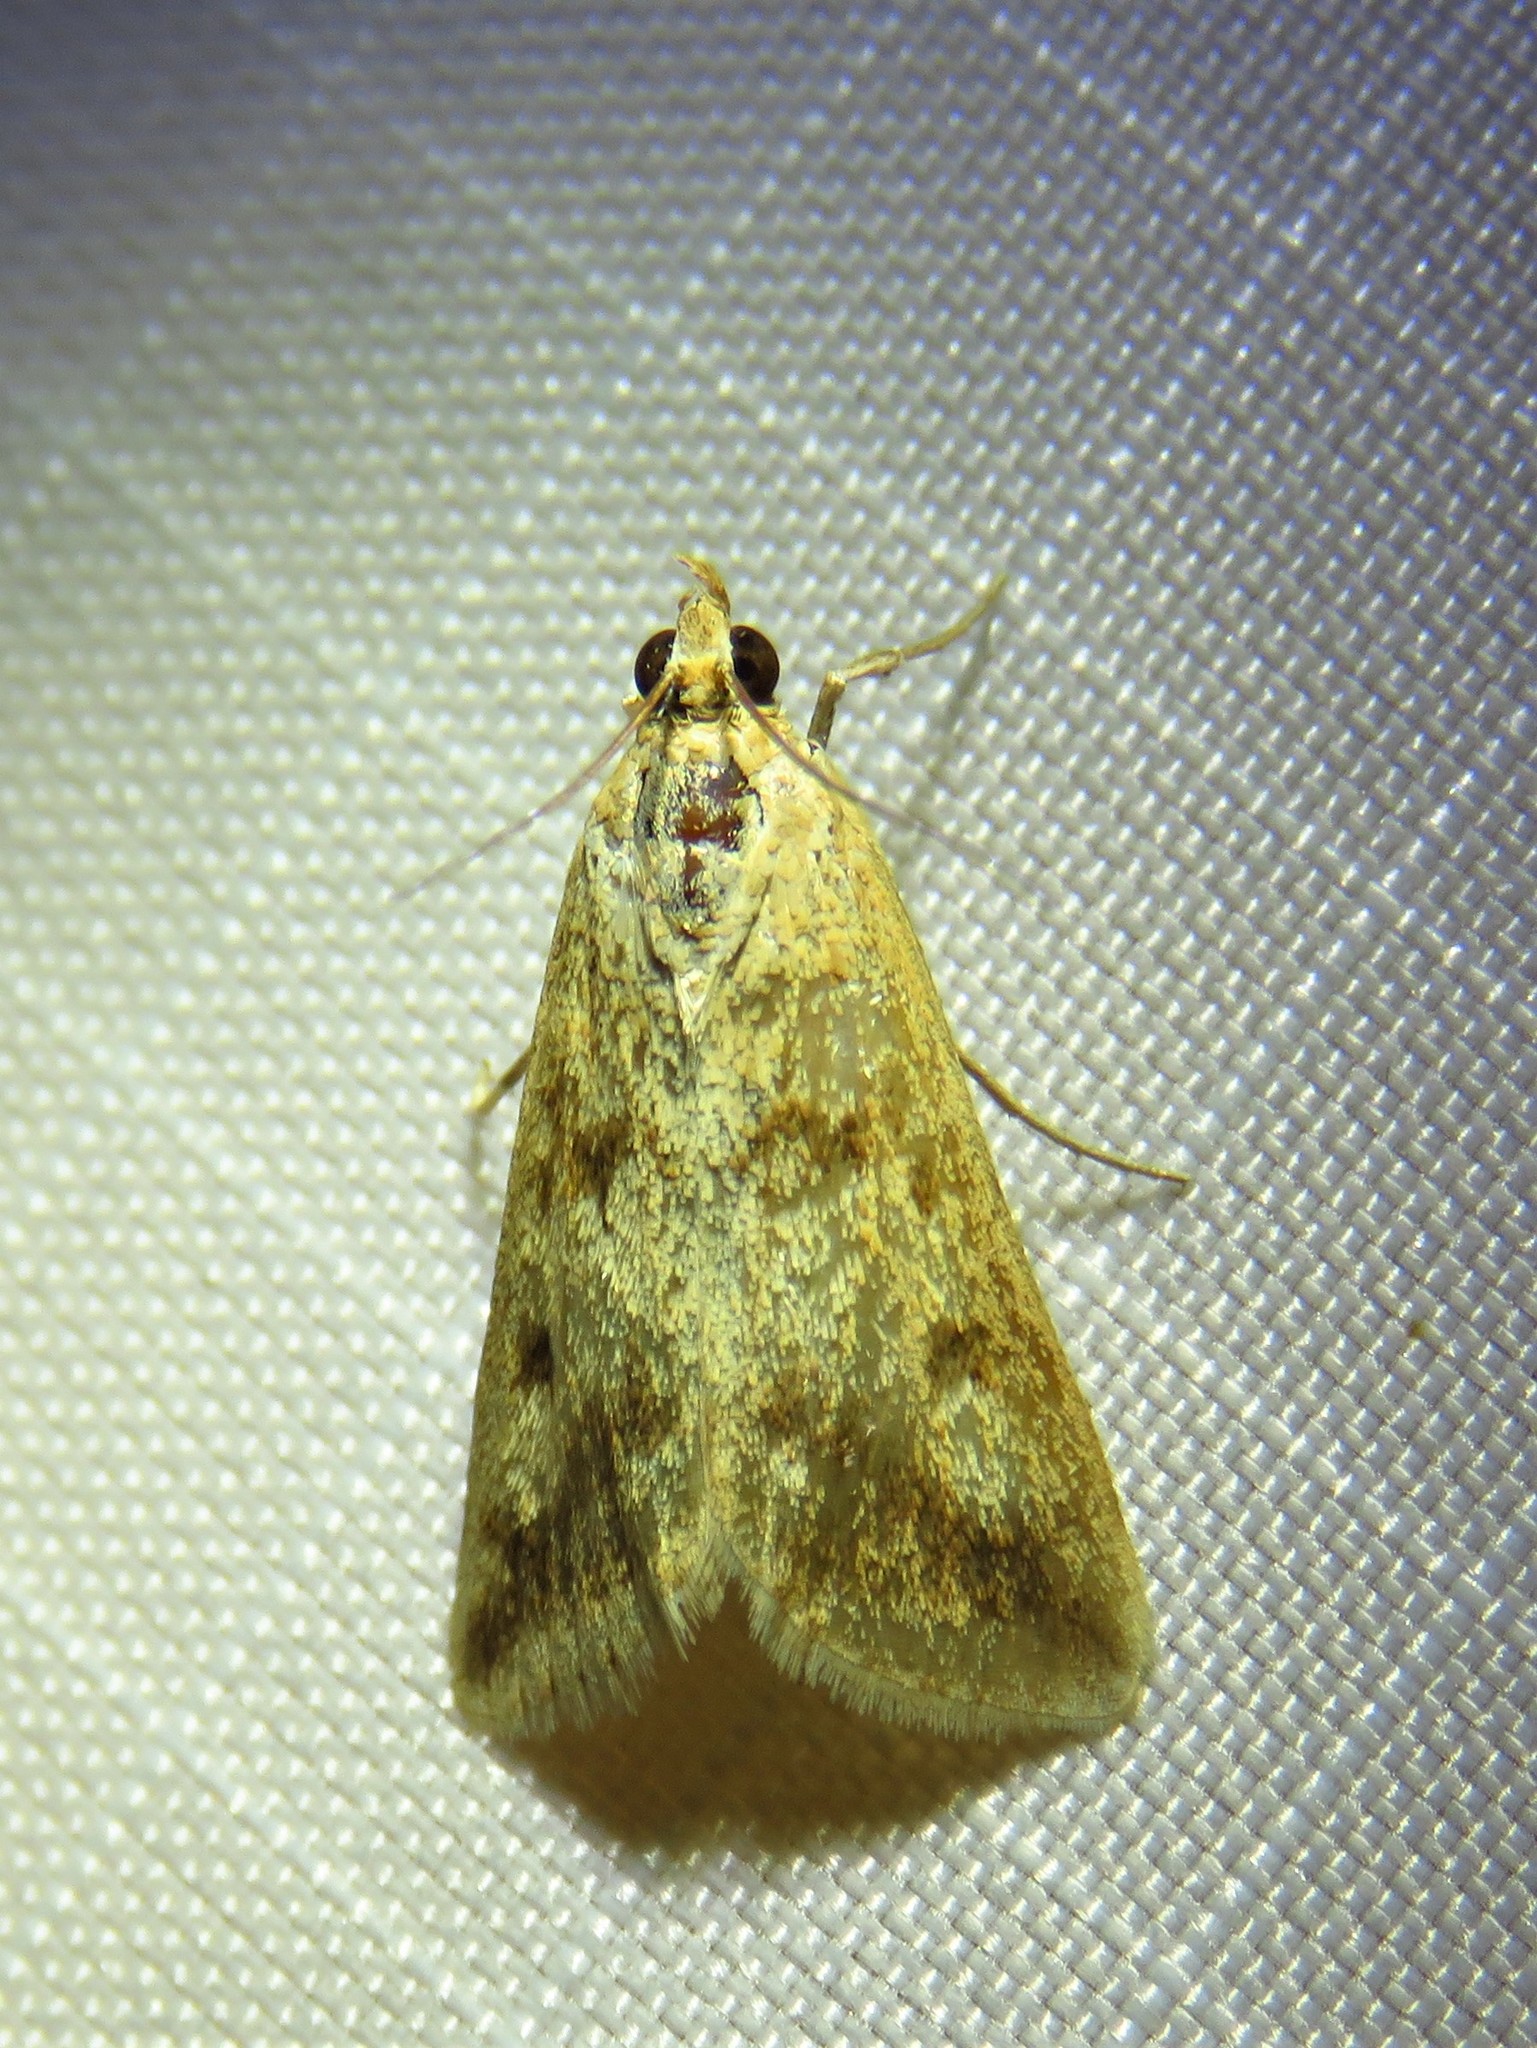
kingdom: Animalia
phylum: Arthropoda
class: Insecta
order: Lepidoptera
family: Crambidae
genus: Achyra
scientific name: Achyra bifidalis
